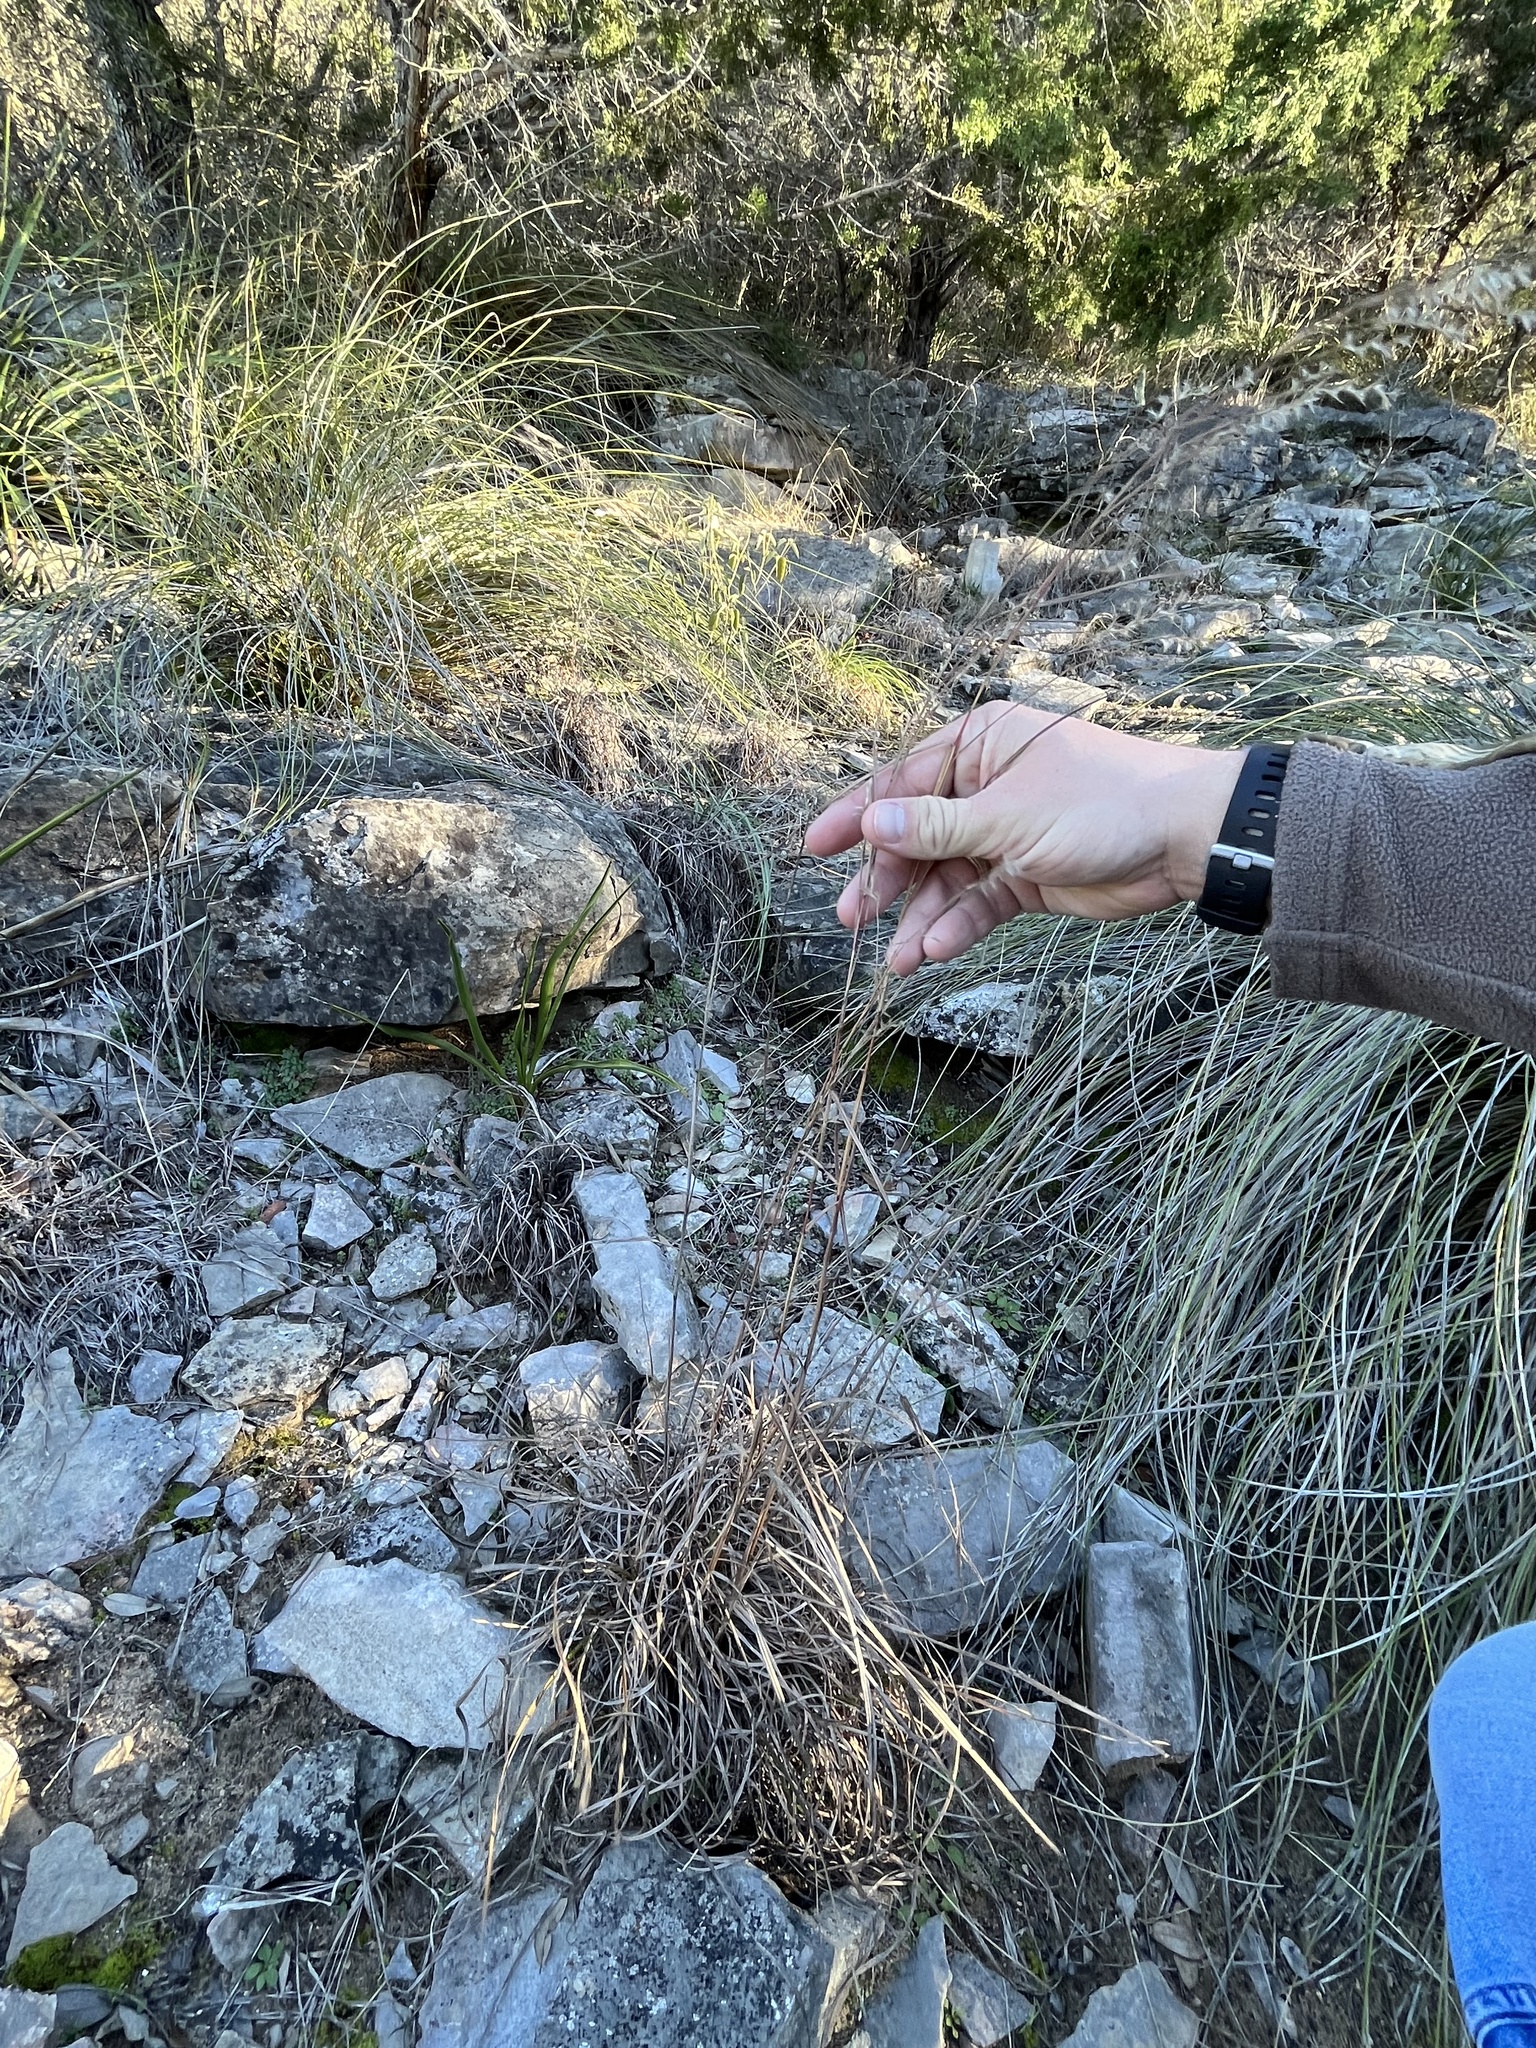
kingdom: Plantae
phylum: Tracheophyta
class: Liliopsida
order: Poales
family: Poaceae
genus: Schizachyrium
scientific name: Schizachyrium scoparium
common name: Little bluestem
